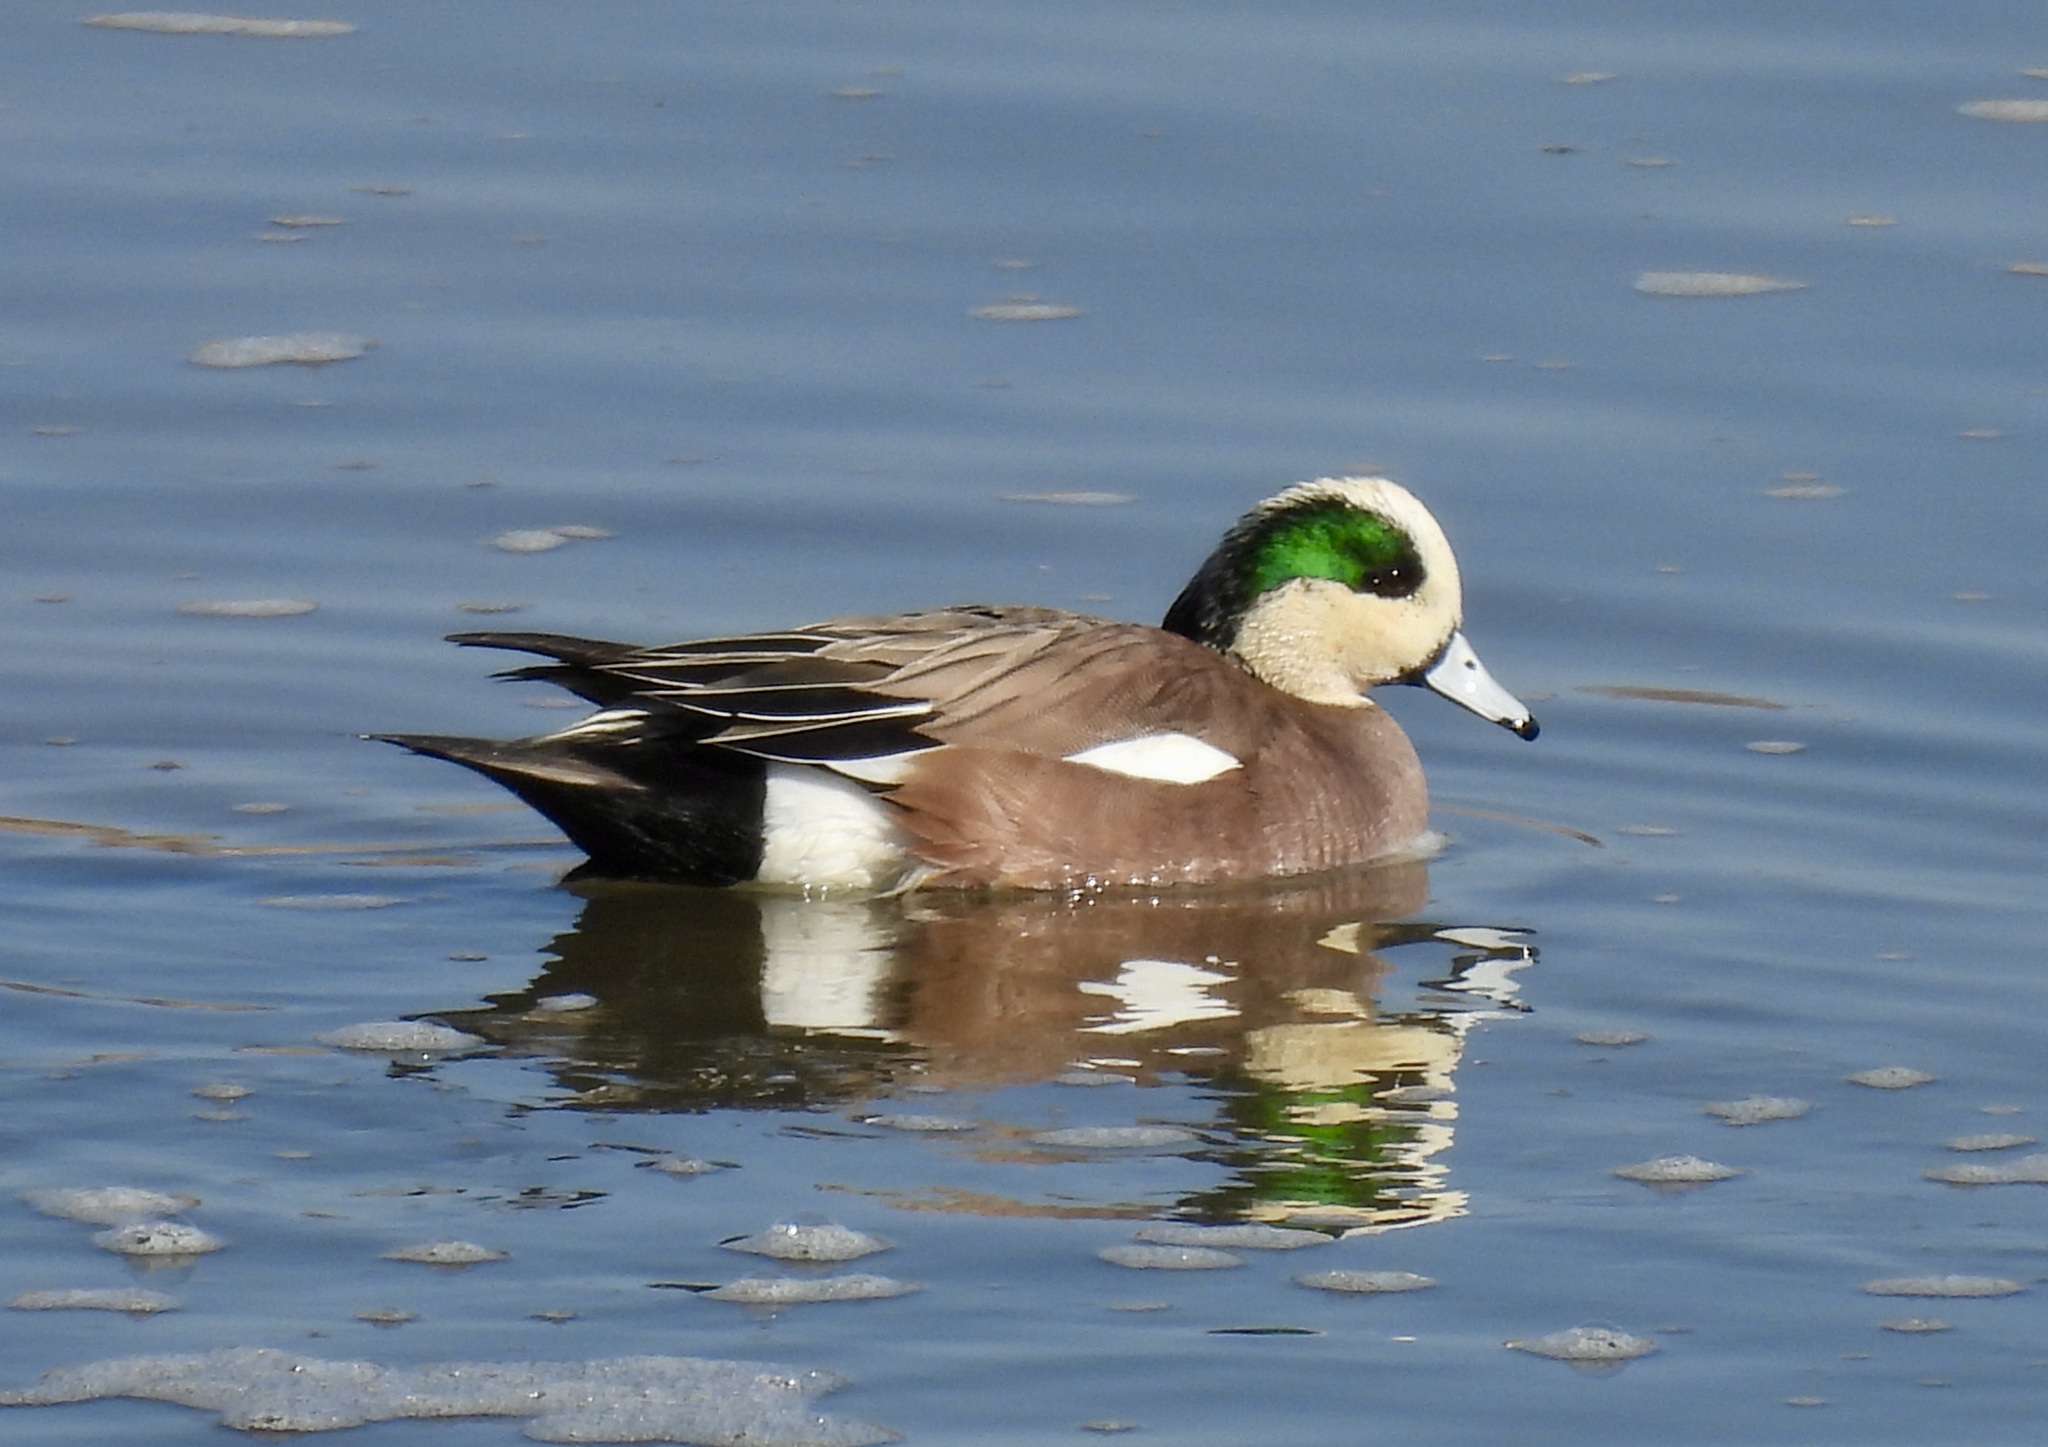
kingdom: Animalia
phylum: Chordata
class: Aves
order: Anseriformes
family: Anatidae
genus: Mareca
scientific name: Mareca americana
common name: American wigeon
